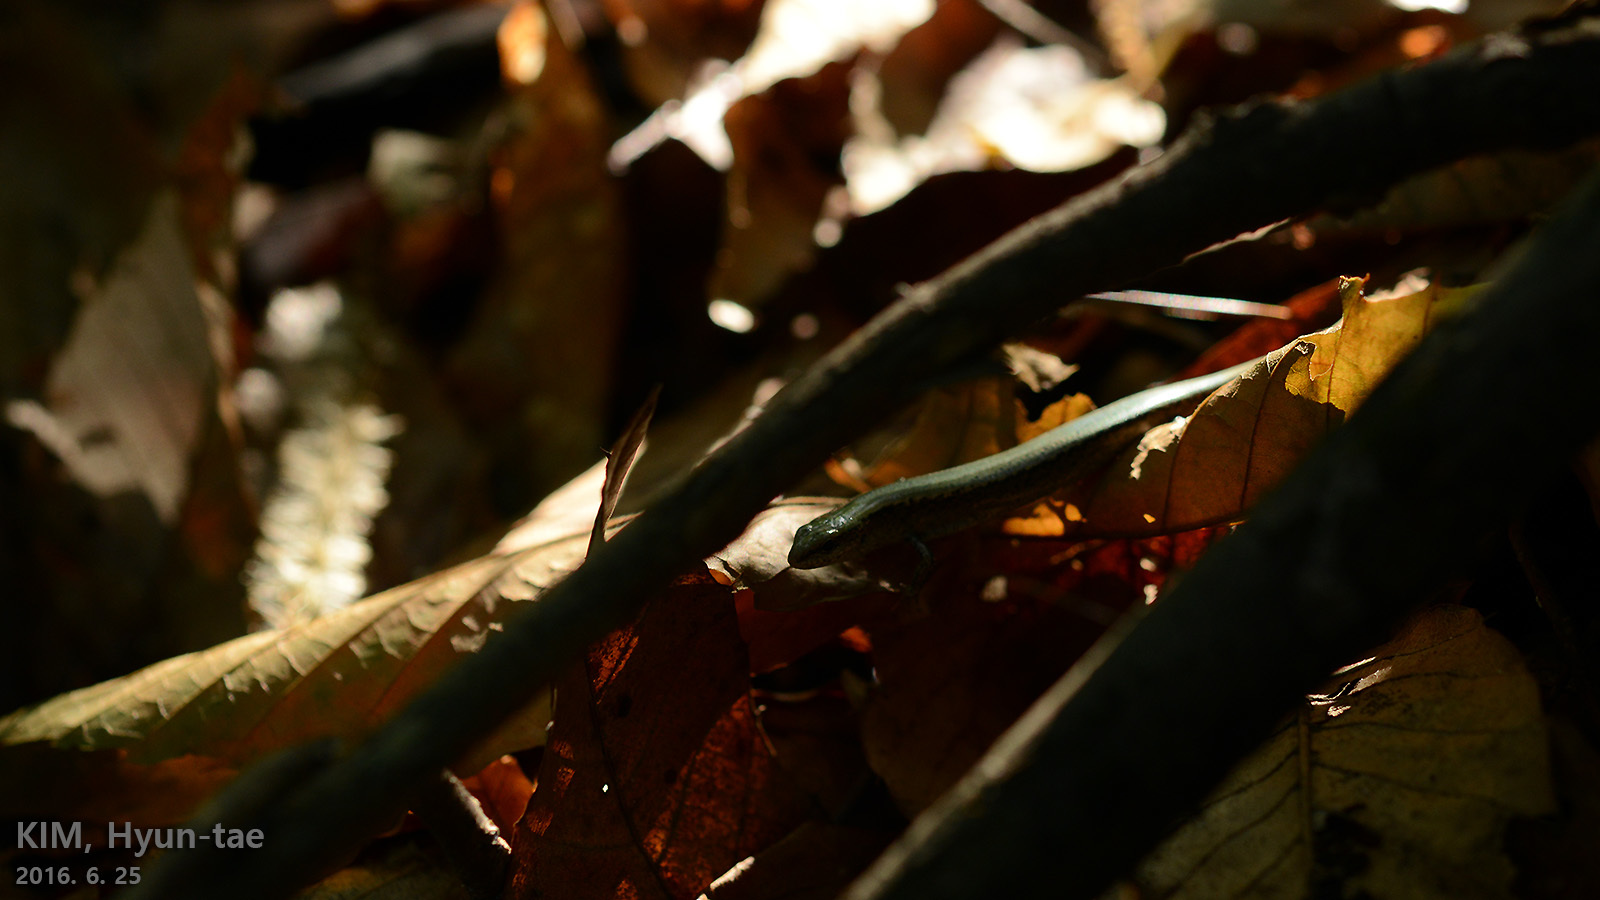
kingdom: Animalia
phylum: Chordata
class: Squamata
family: Scincidae
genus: Scincella
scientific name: Scincella vandenburghi
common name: Tsushima smooth skink
